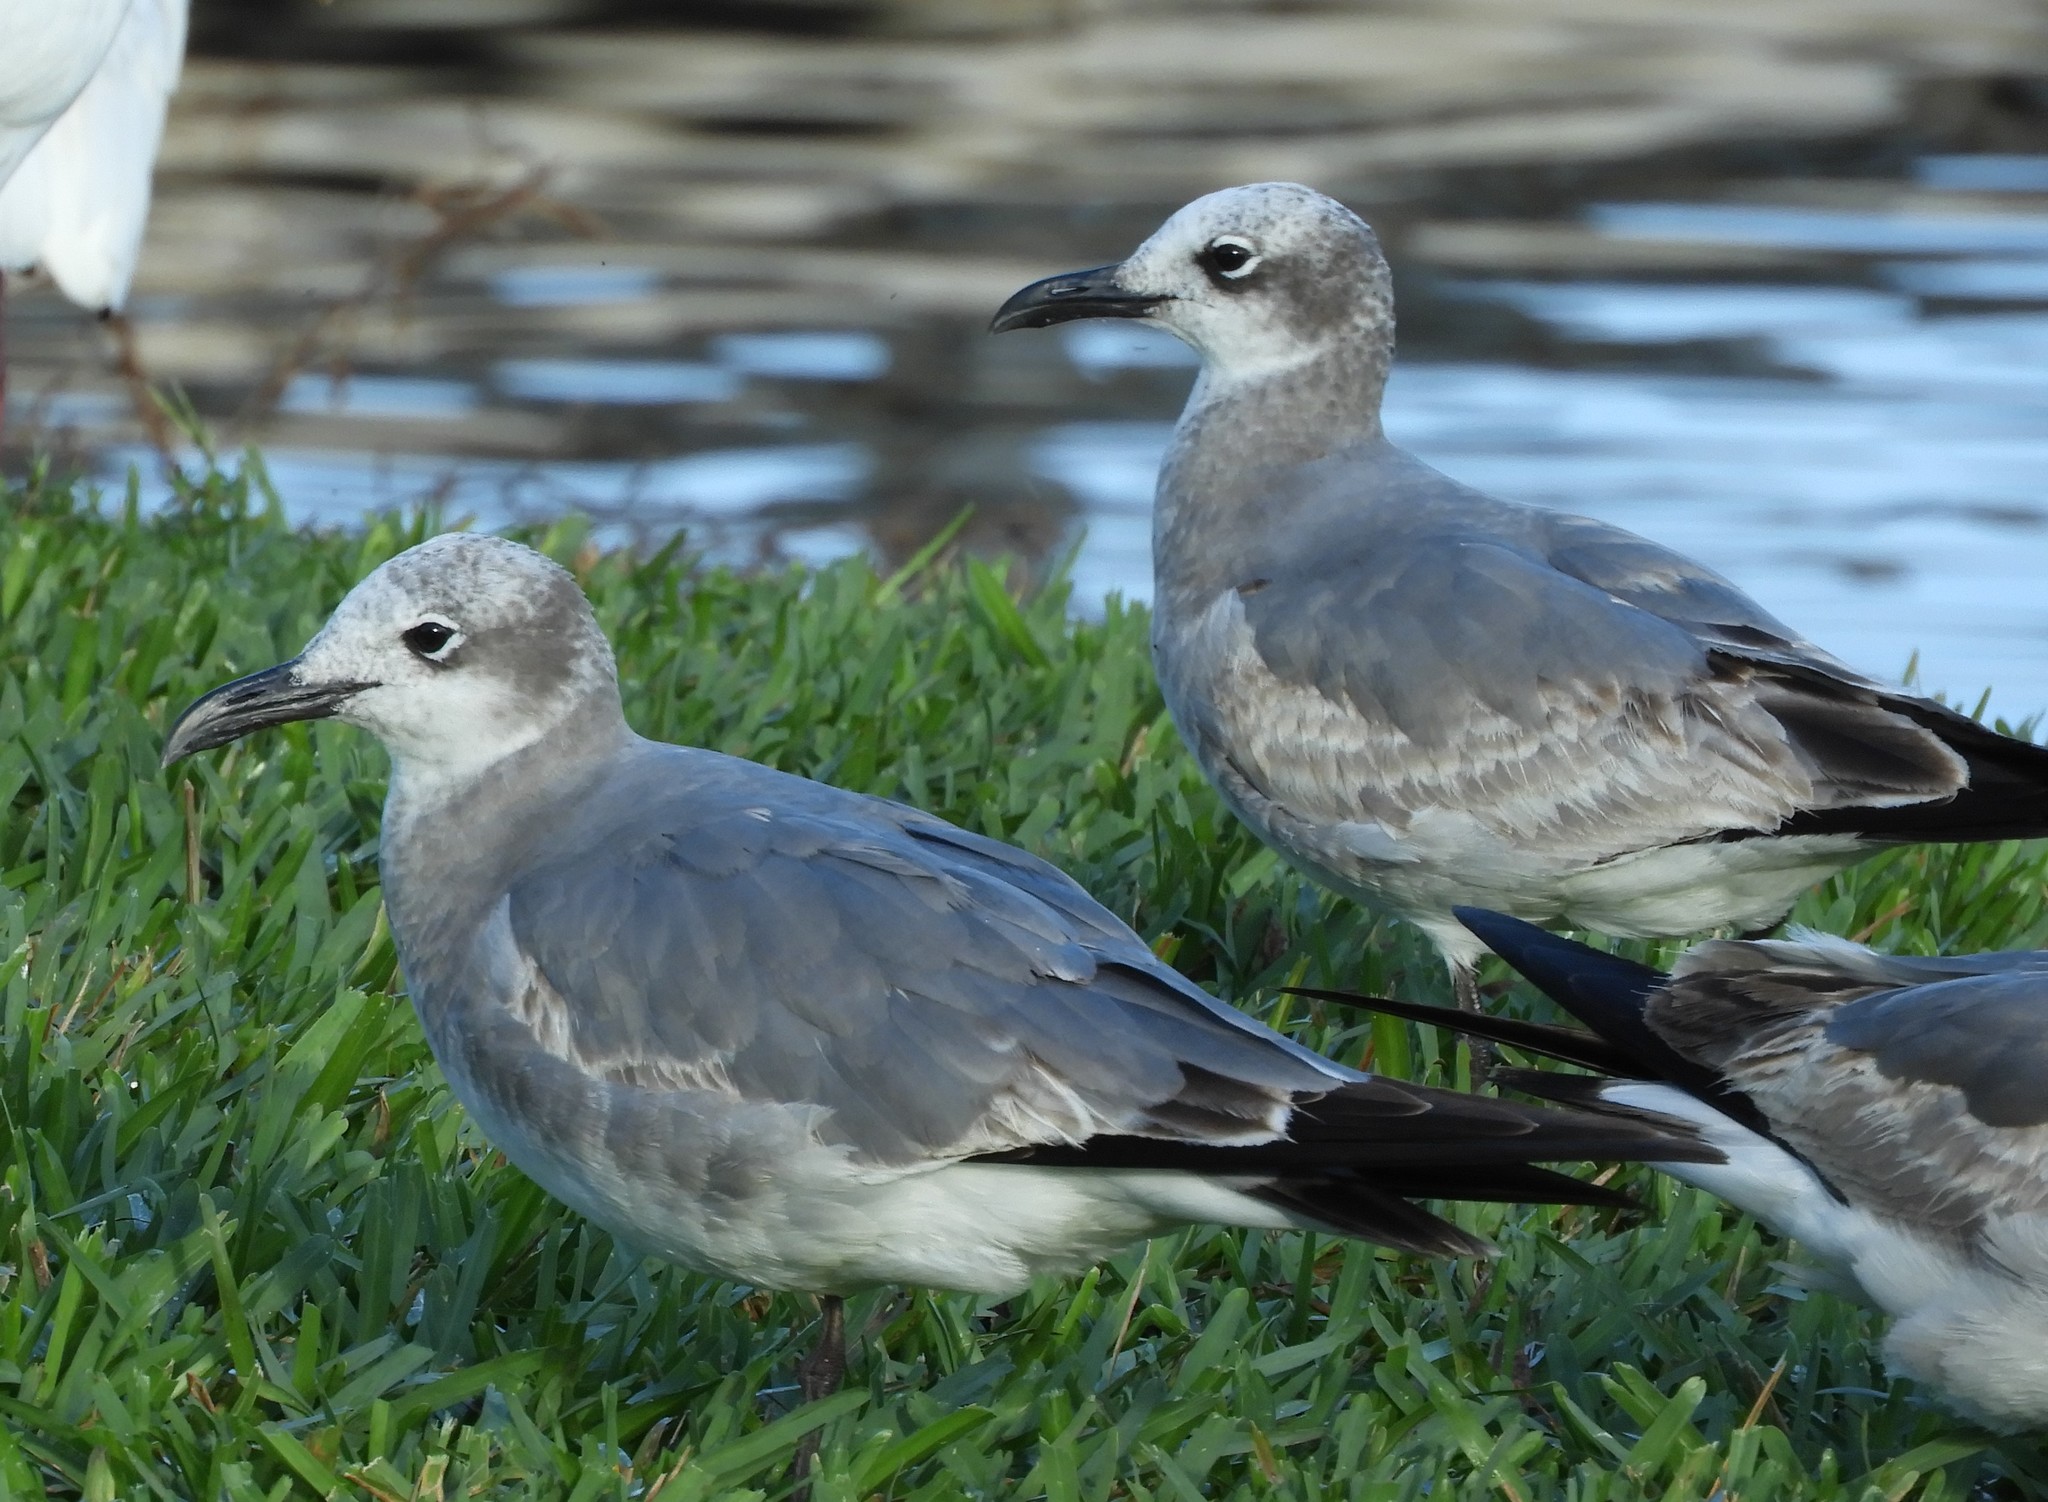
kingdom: Animalia
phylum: Chordata
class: Aves
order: Charadriiformes
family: Laridae
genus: Leucophaeus
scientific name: Leucophaeus atricilla
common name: Laughing gull
